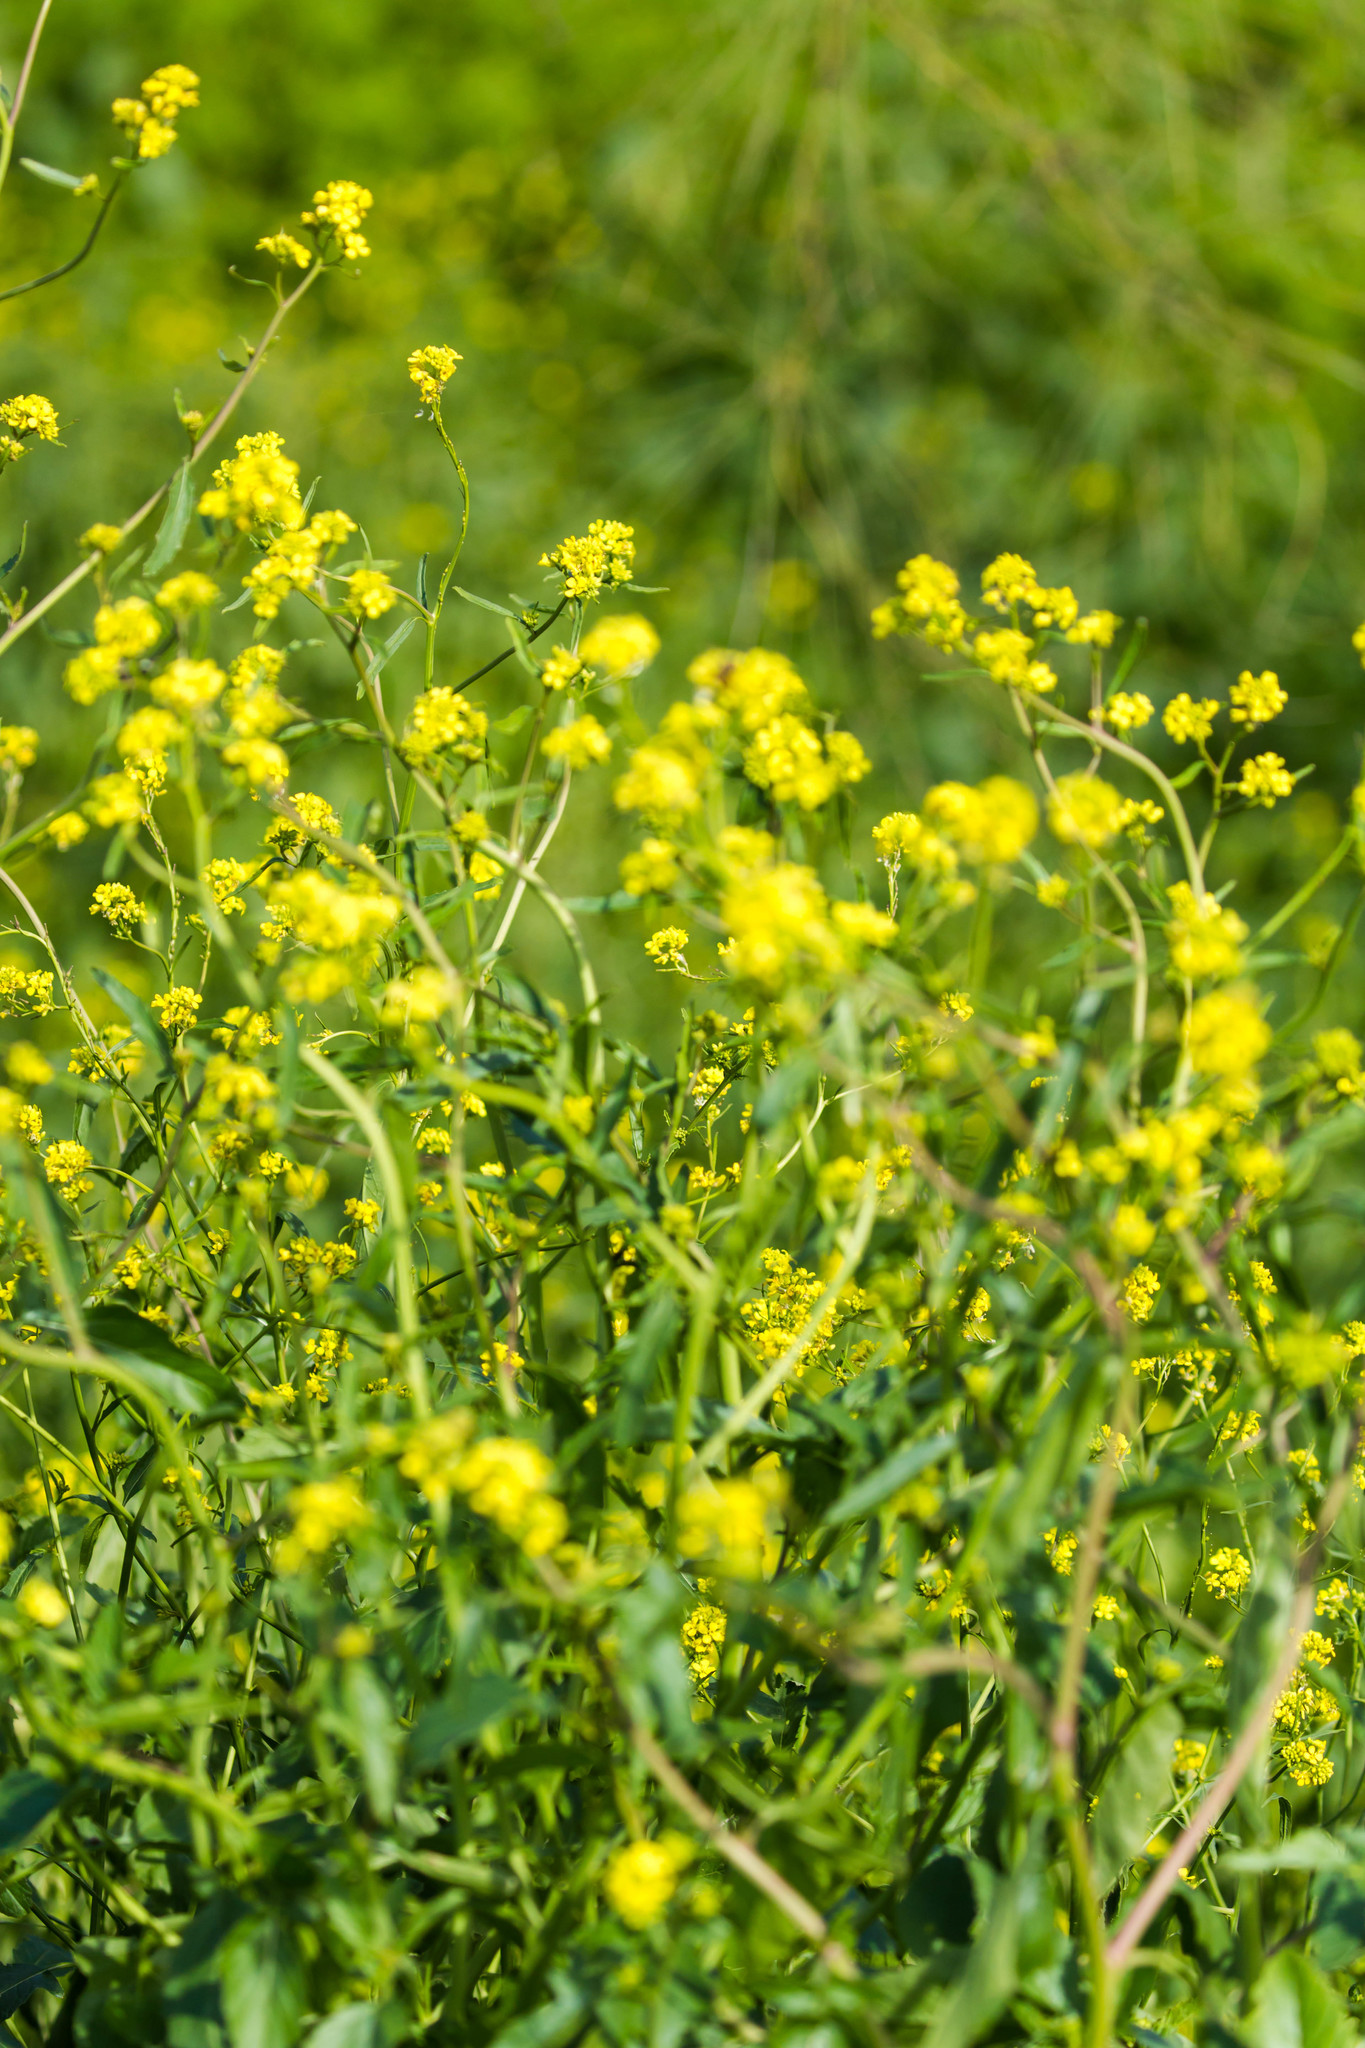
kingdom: Plantae
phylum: Tracheophyta
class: Magnoliopsida
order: Brassicales
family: Brassicaceae
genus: Rapistrum
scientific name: Rapistrum rugosum
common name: Annual bastardcabbage
